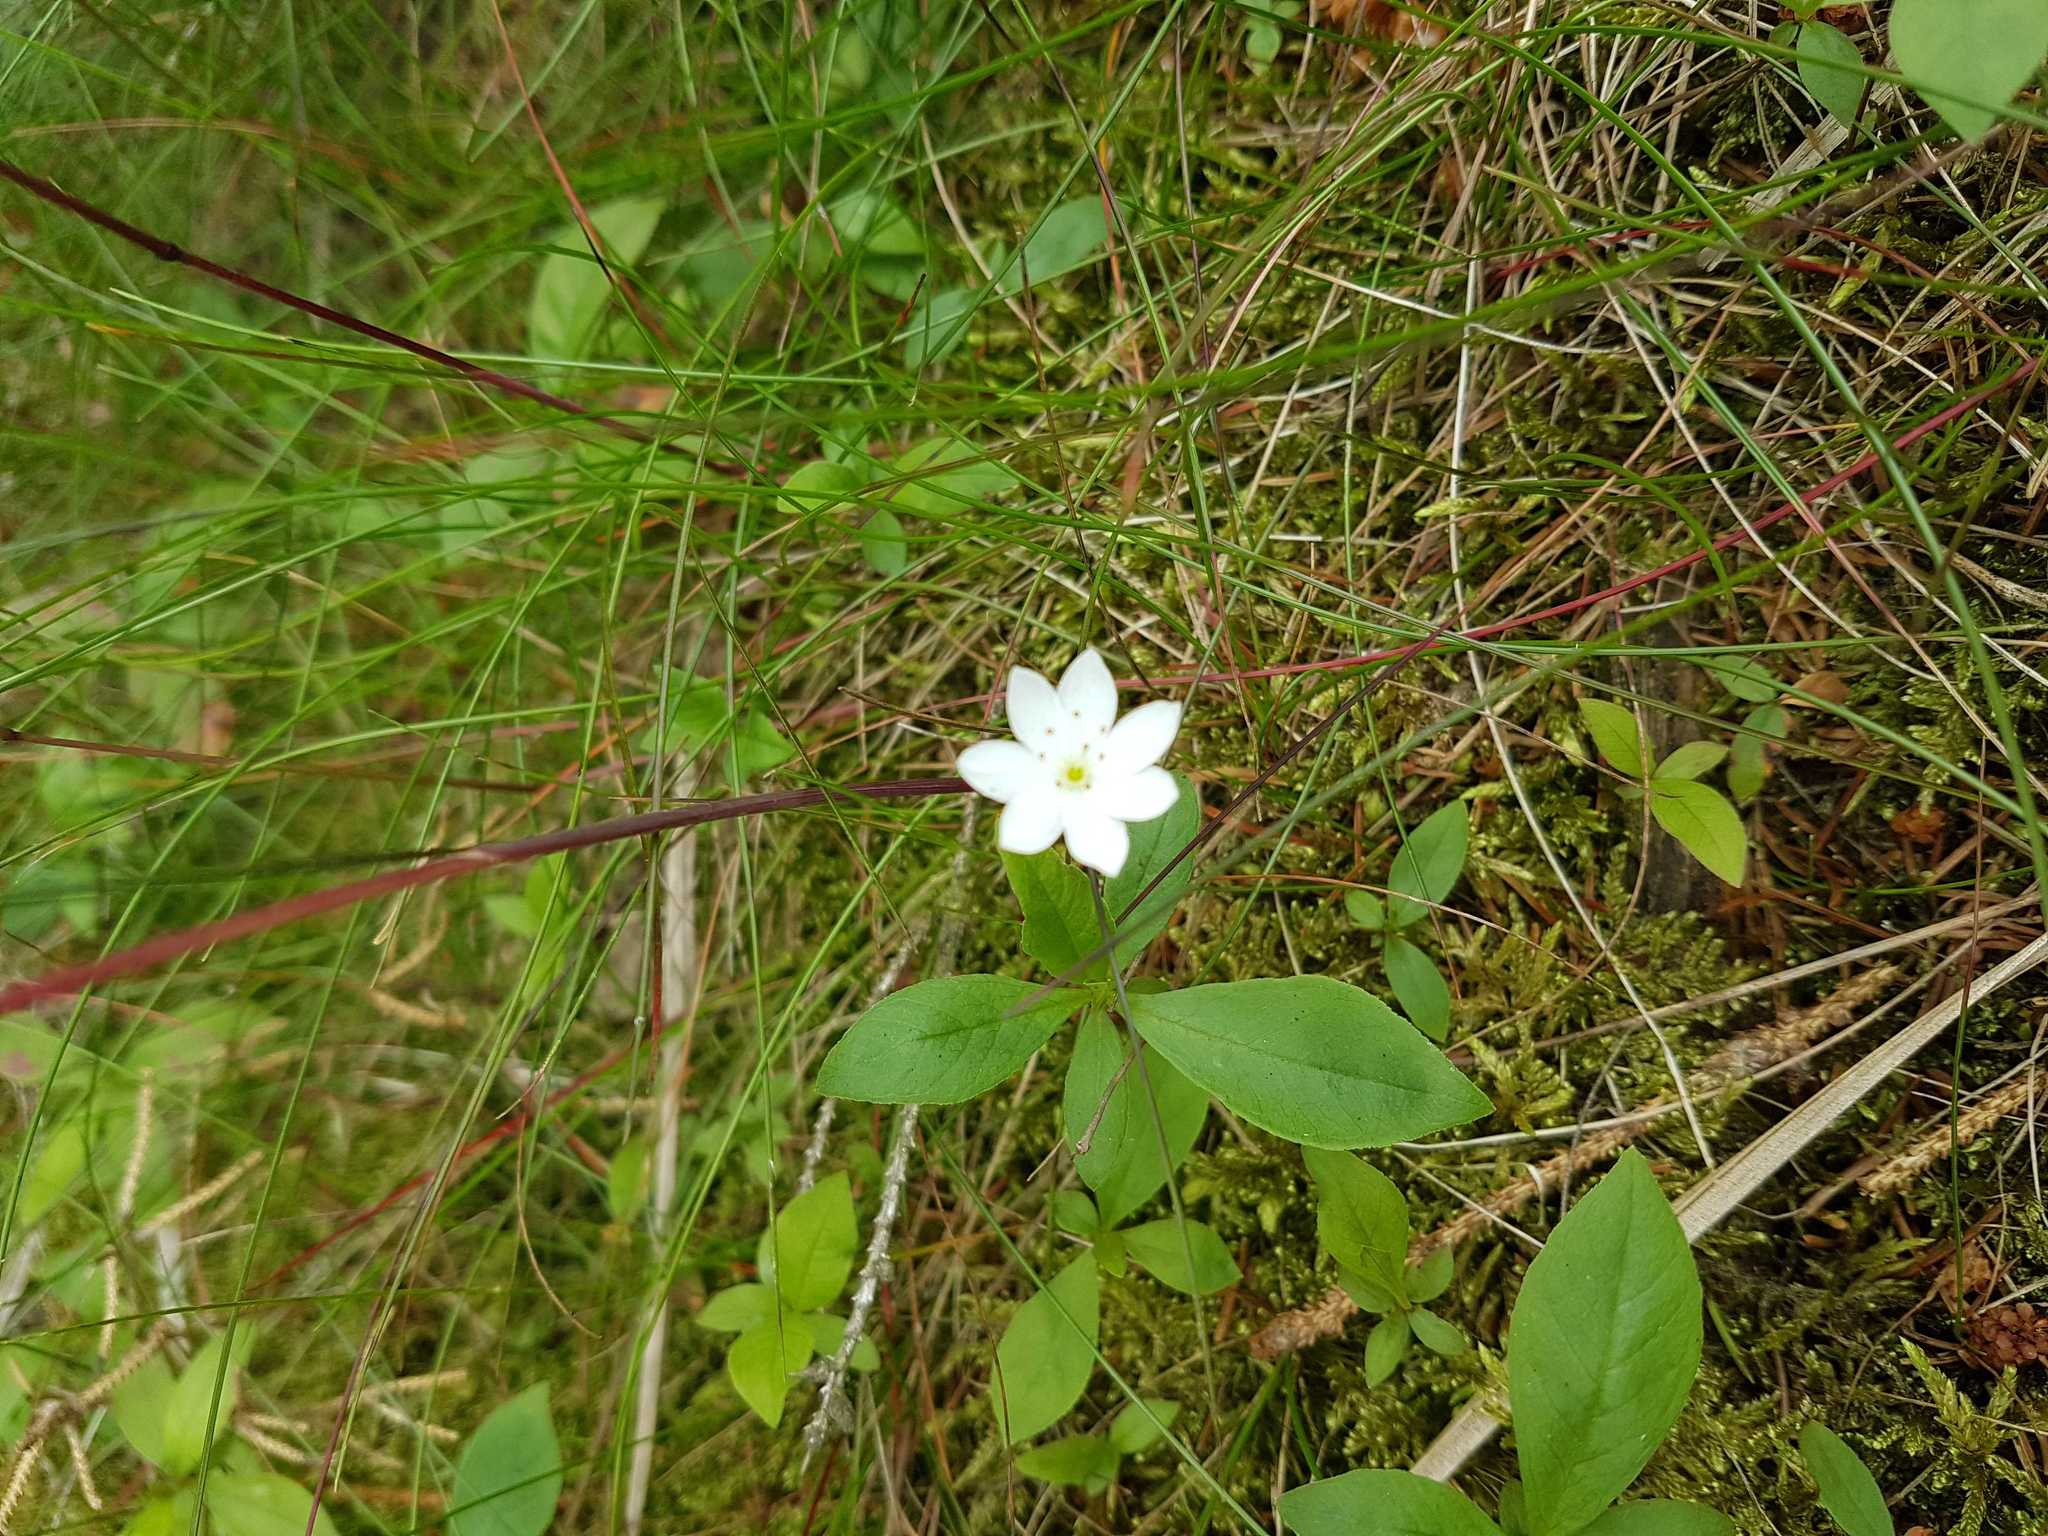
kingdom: Plantae
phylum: Tracheophyta
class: Magnoliopsida
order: Ericales
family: Primulaceae
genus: Lysimachia
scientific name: Lysimachia europaea
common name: Arctic starflower
